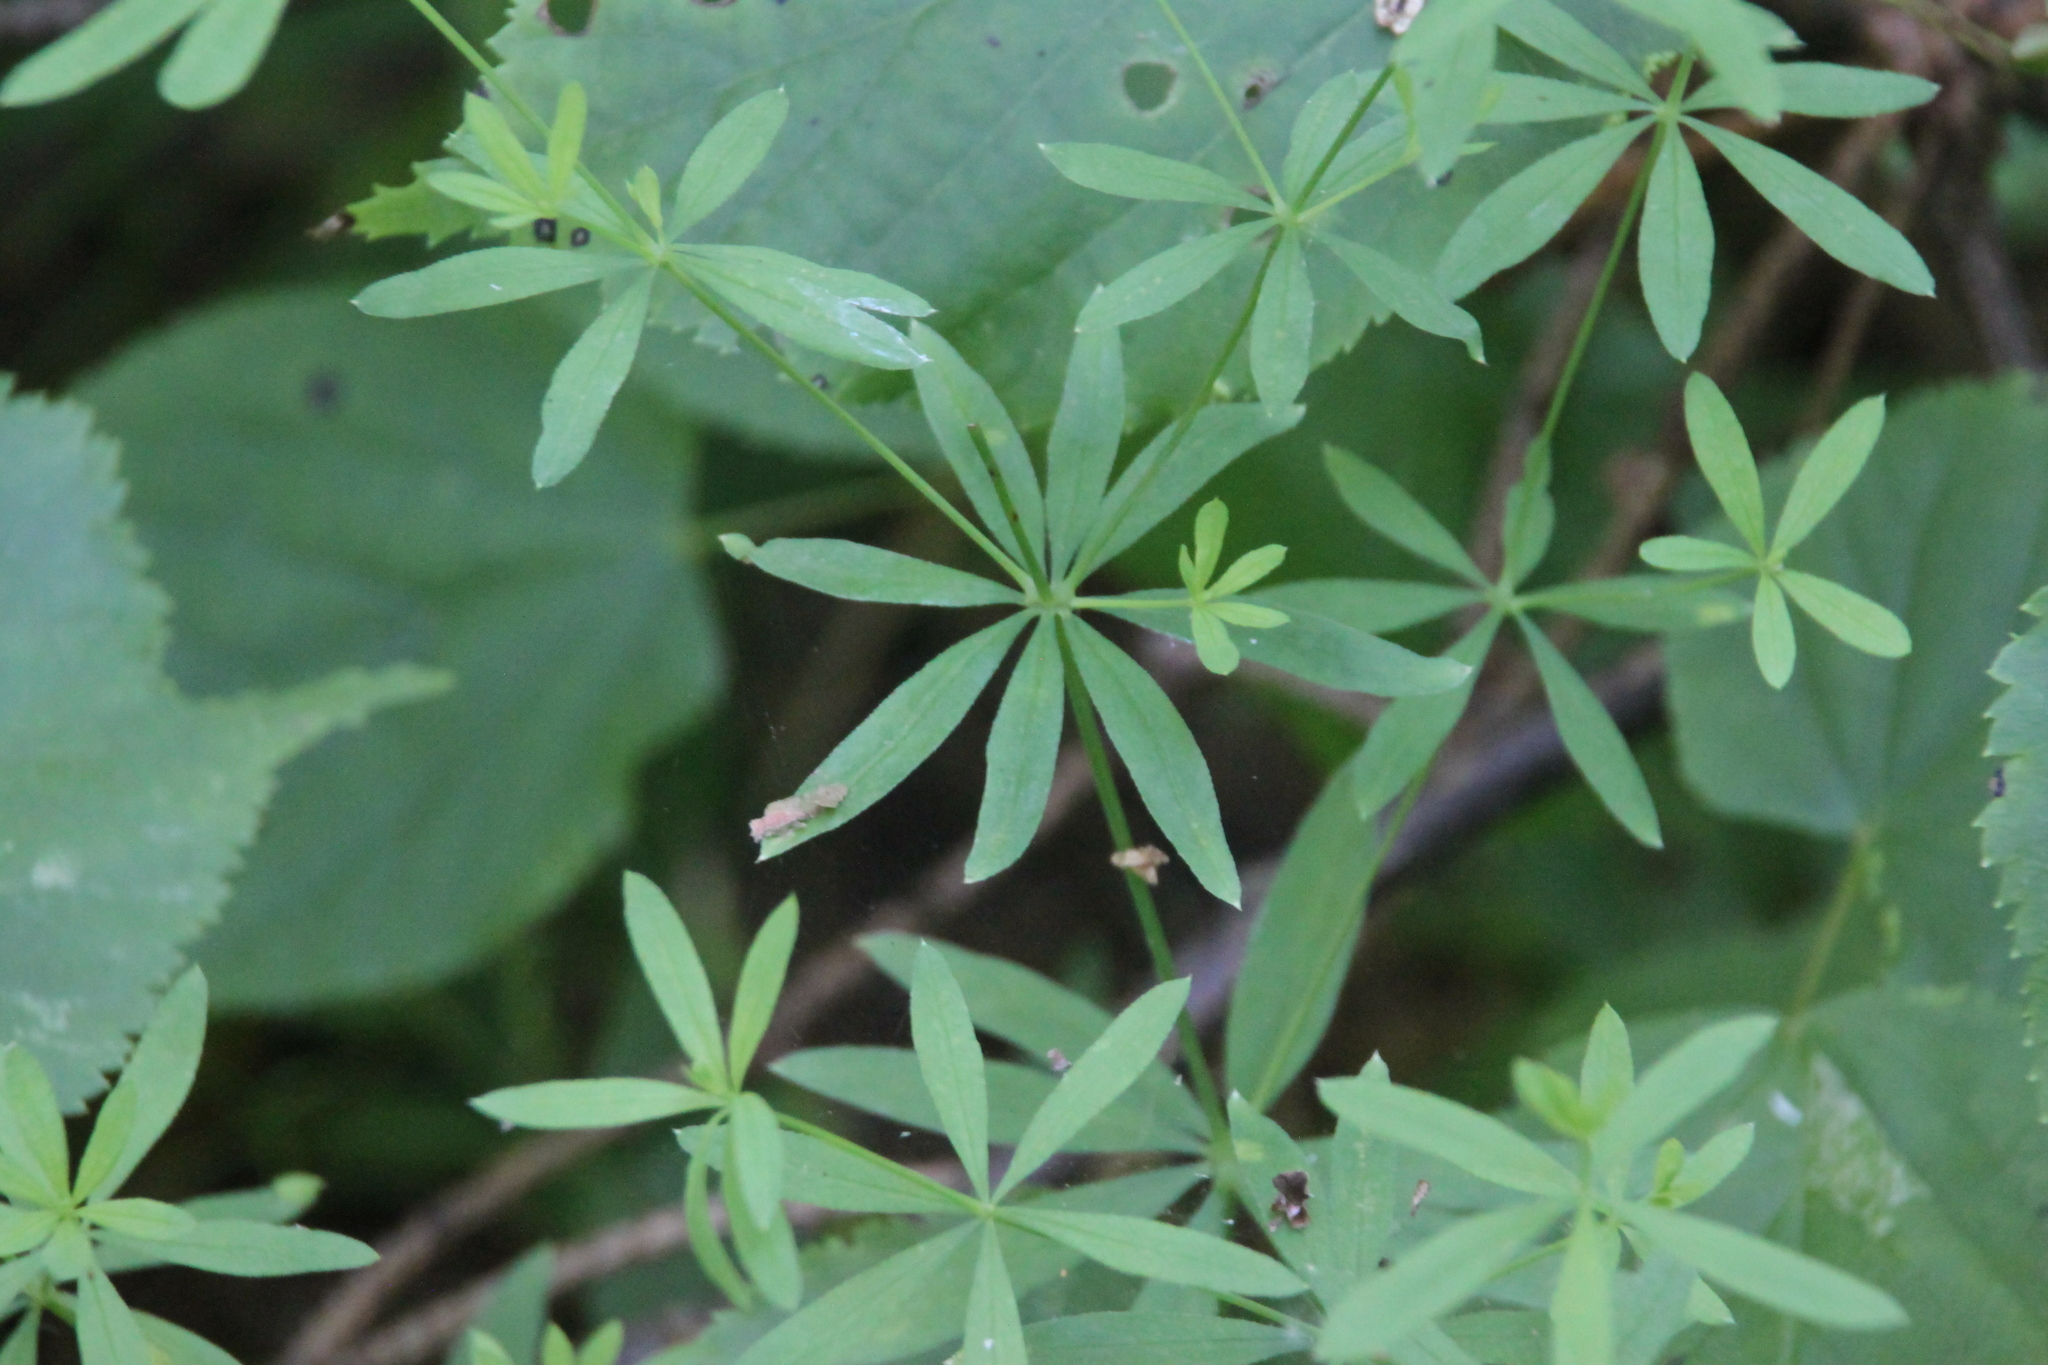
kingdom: Plantae
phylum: Tracheophyta
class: Magnoliopsida
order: Gentianales
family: Rubiaceae
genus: Galium
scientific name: Galium intermedium
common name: Bedstraw
